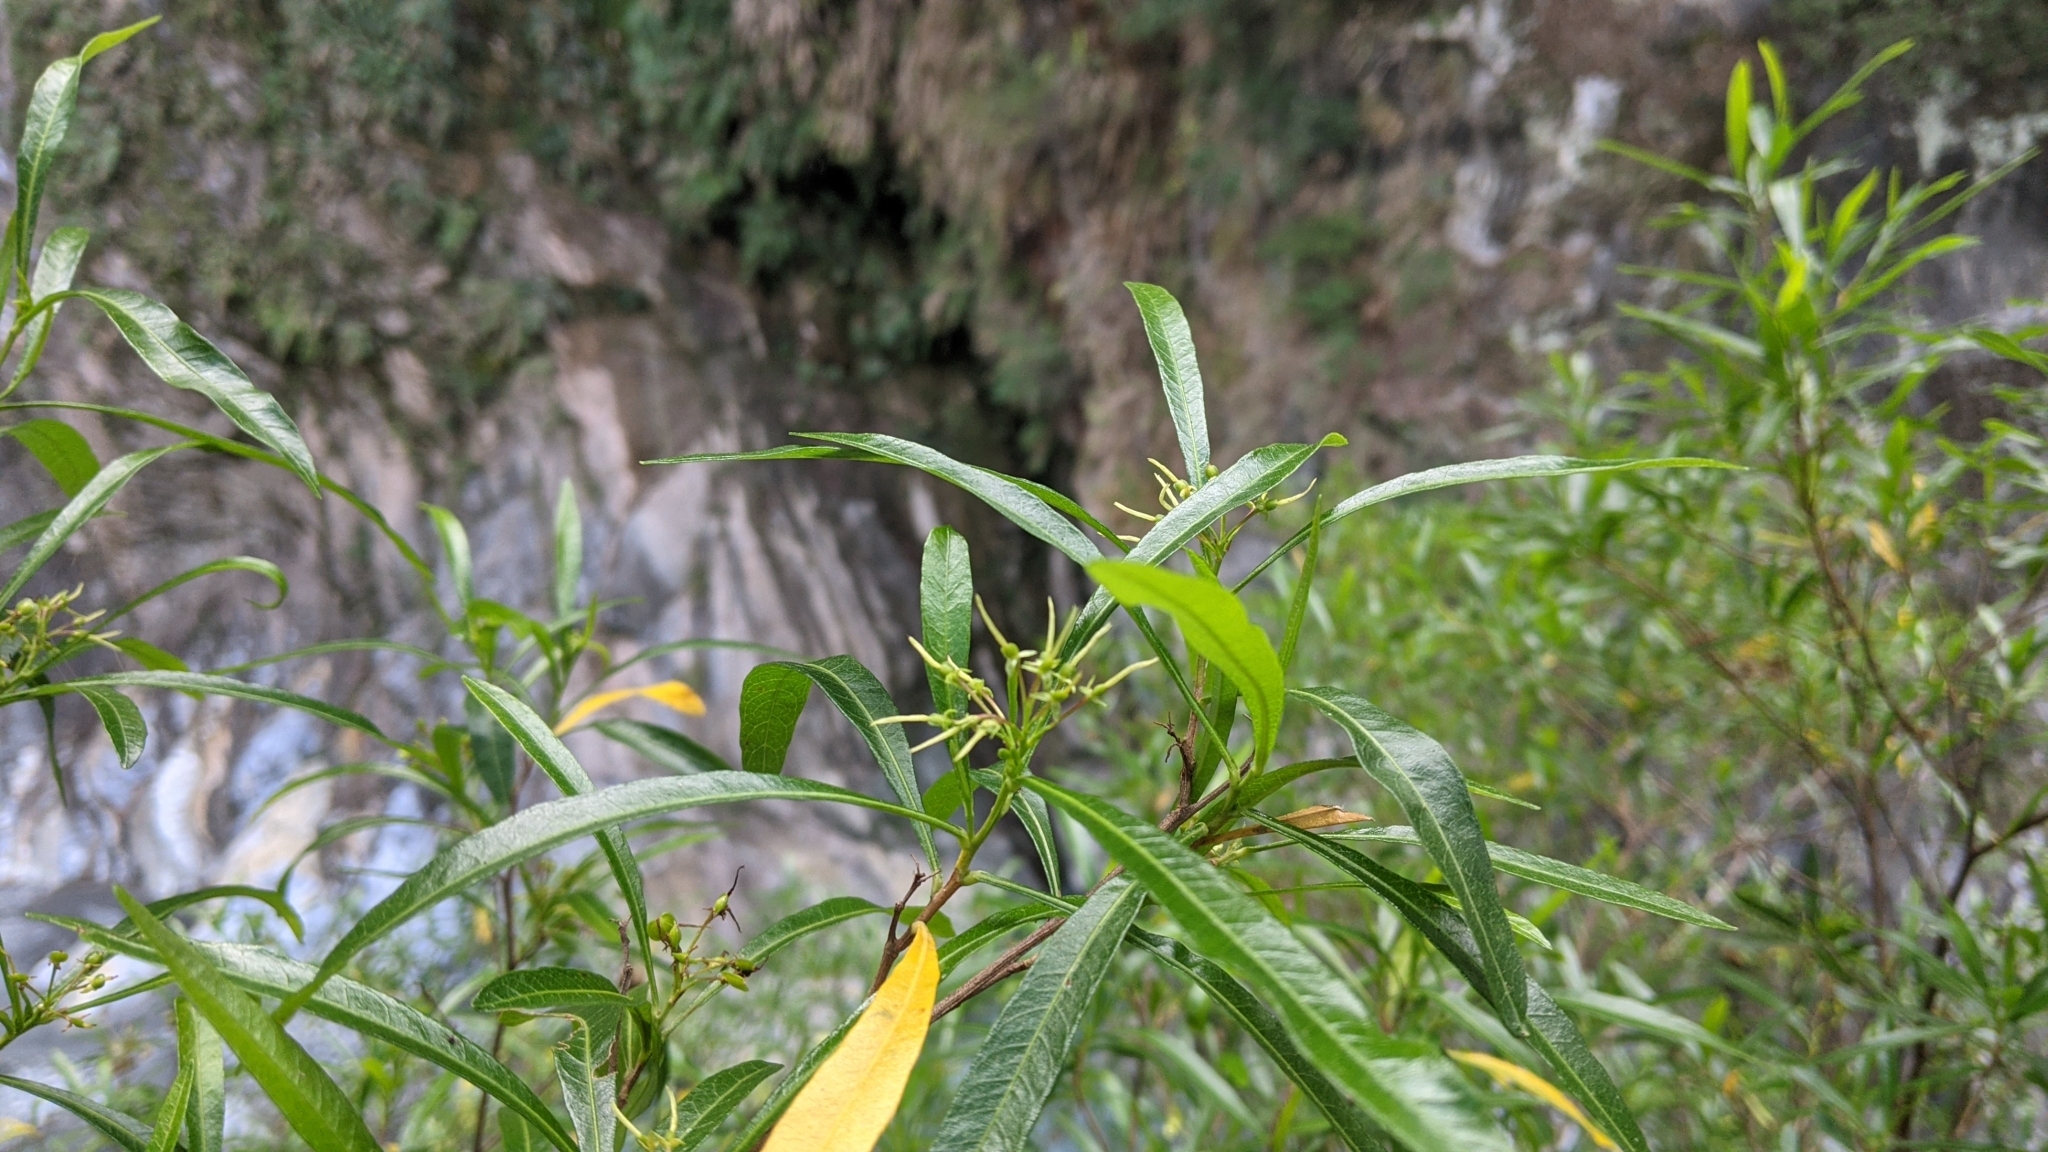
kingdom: Plantae
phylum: Tracheophyta
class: Magnoliopsida
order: Sapindales
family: Sapindaceae
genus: Dodonaea
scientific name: Dodonaea viscosa
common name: Hopbush
